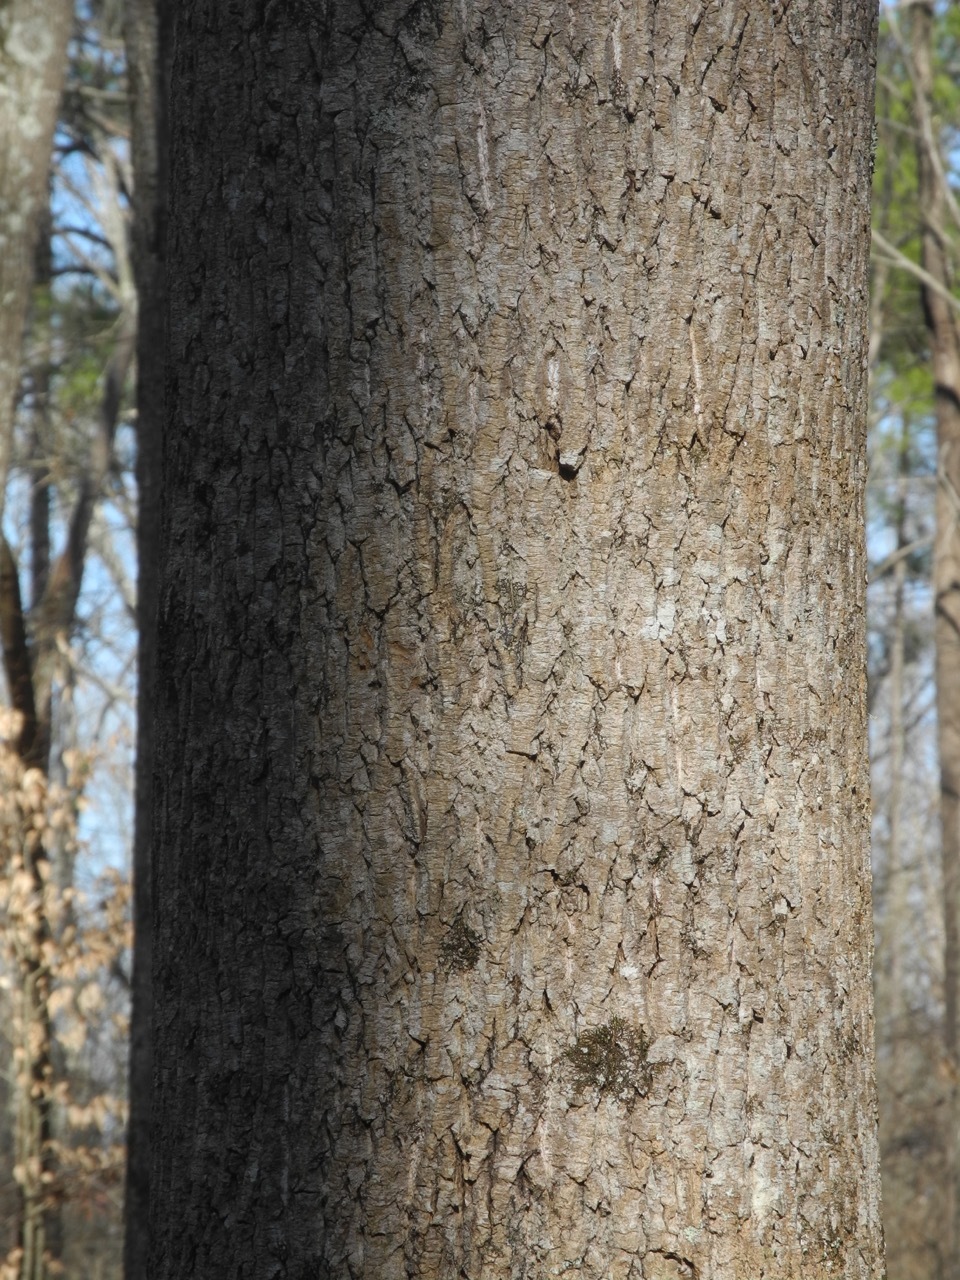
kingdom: Plantae
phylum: Tracheophyta
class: Magnoliopsida
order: Magnoliales
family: Magnoliaceae
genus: Liriodendron
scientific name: Liriodendron tulipifera
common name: Tulip tree
